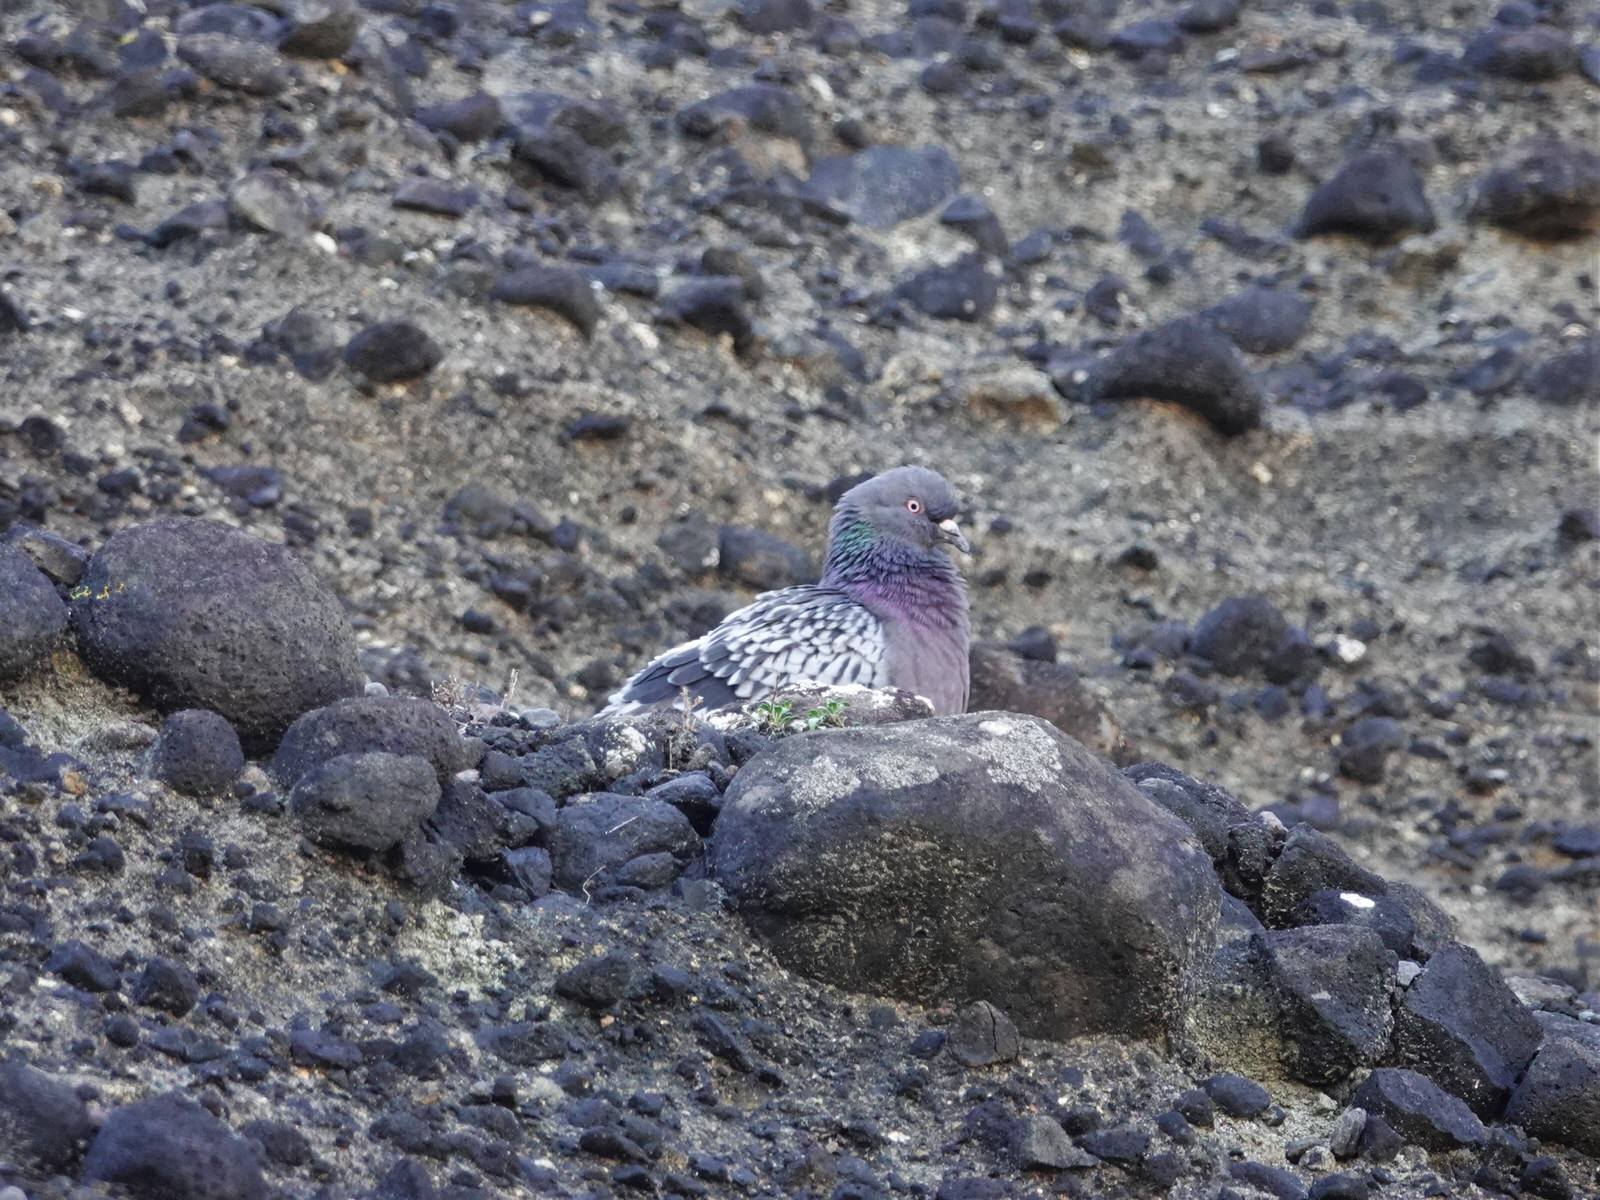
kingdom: Animalia
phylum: Chordata
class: Aves
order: Columbiformes
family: Columbidae
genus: Columba
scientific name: Columba livia
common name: Rock pigeon
